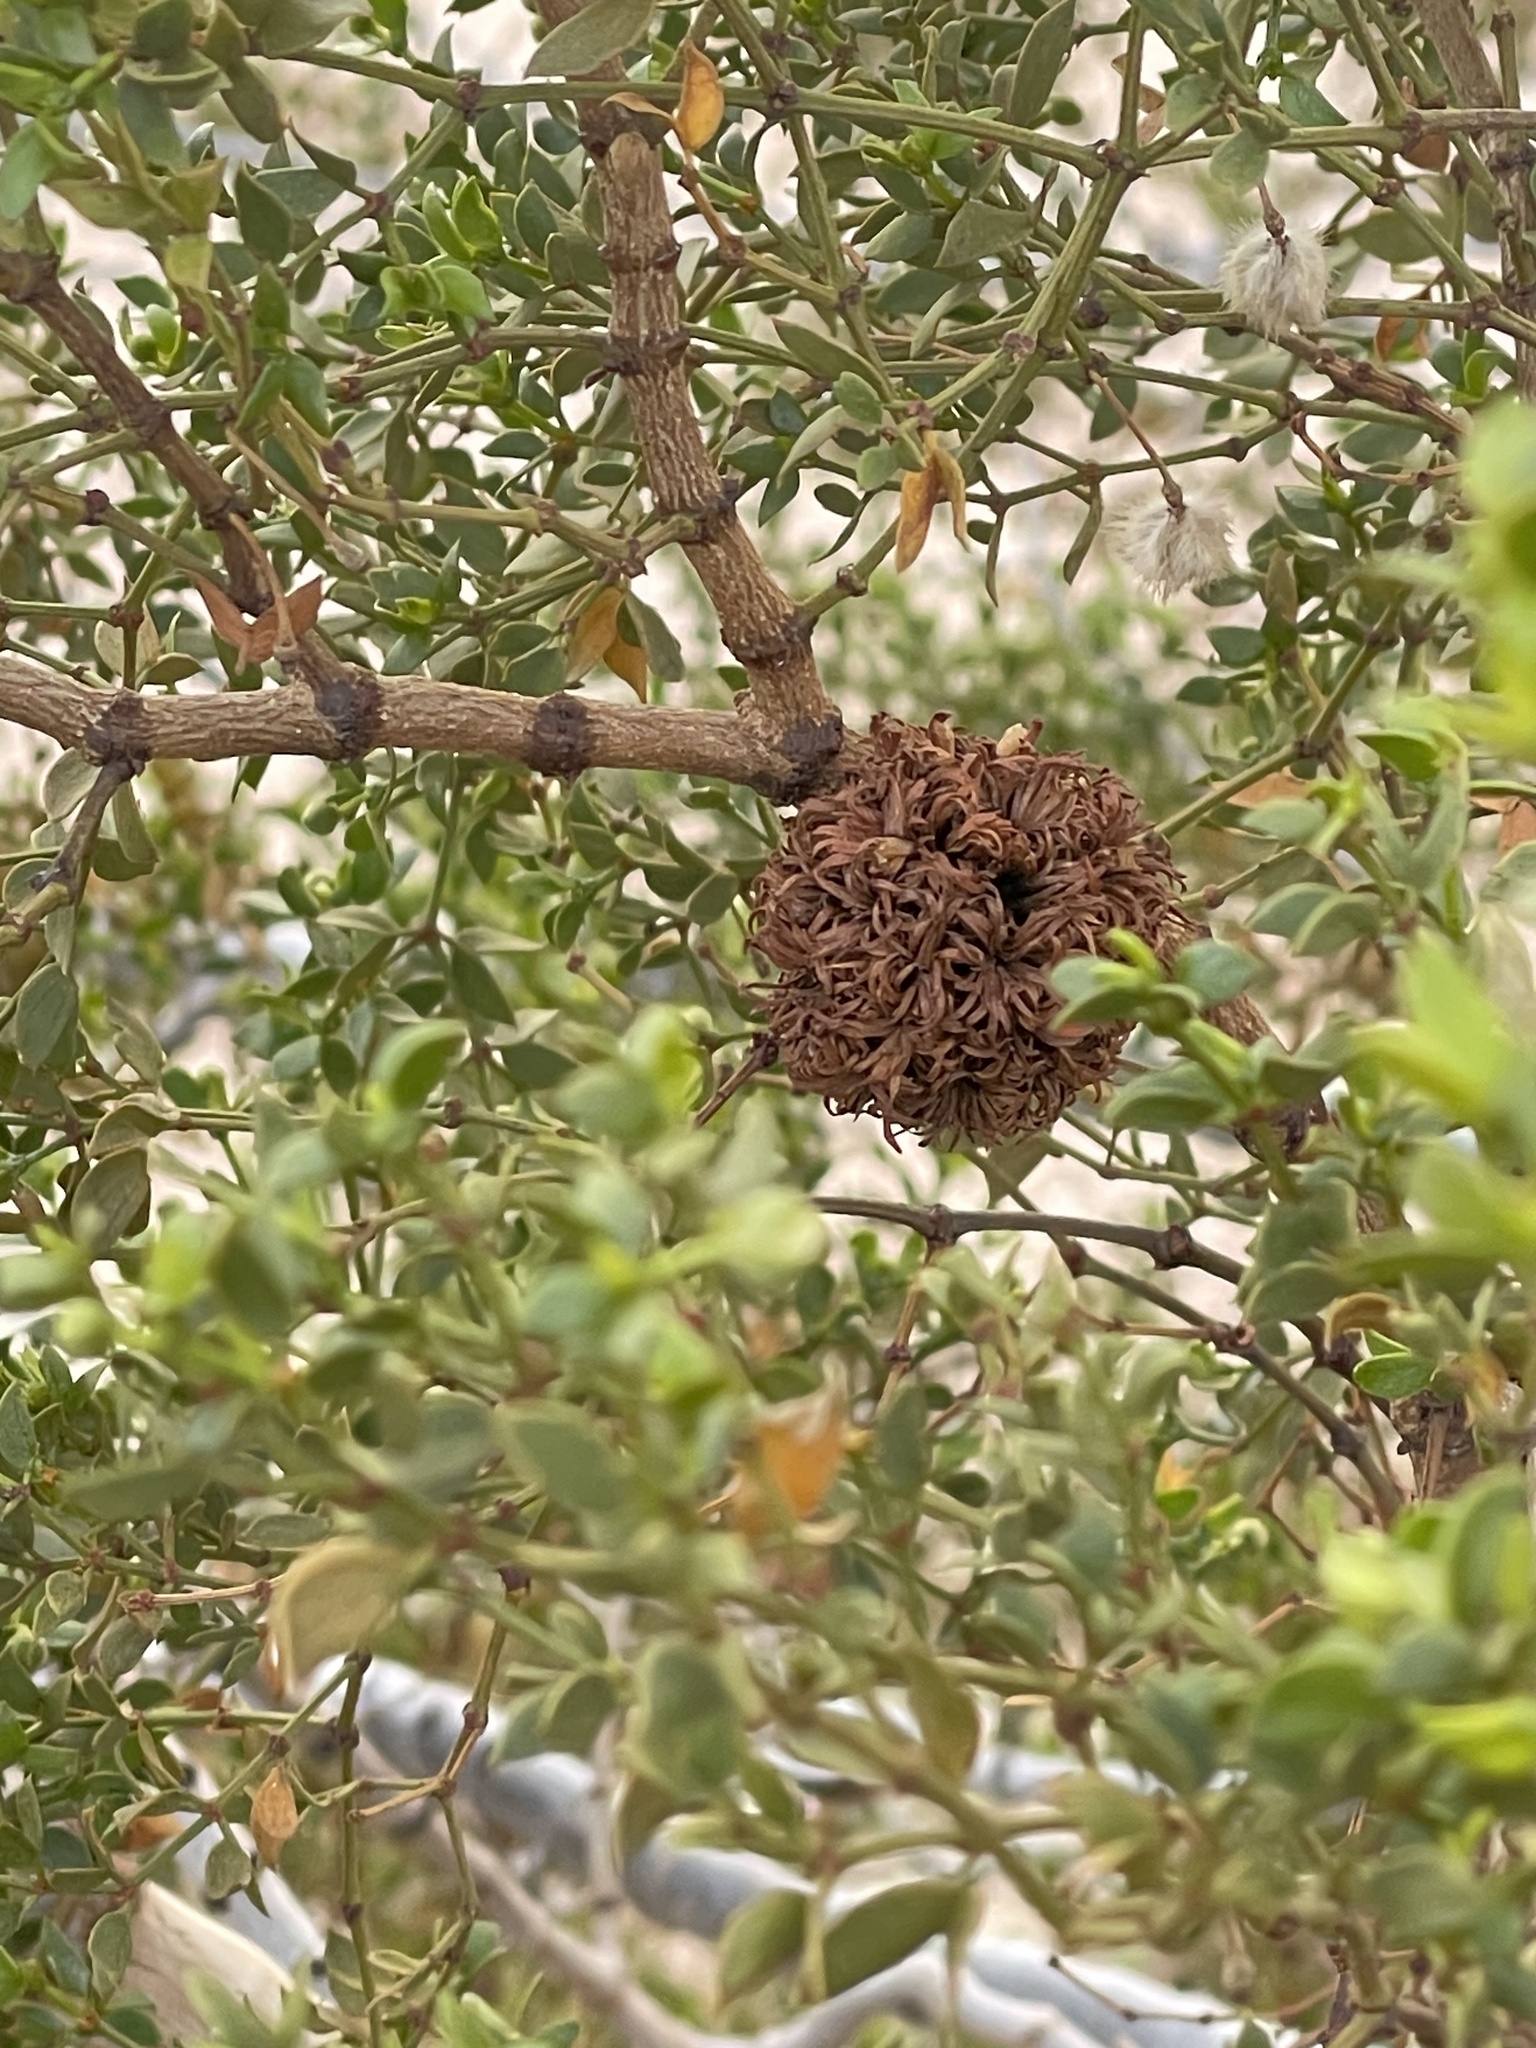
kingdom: Animalia
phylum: Arthropoda
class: Insecta
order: Diptera
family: Cecidomyiidae
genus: Asphondylia
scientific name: Asphondylia auripila
